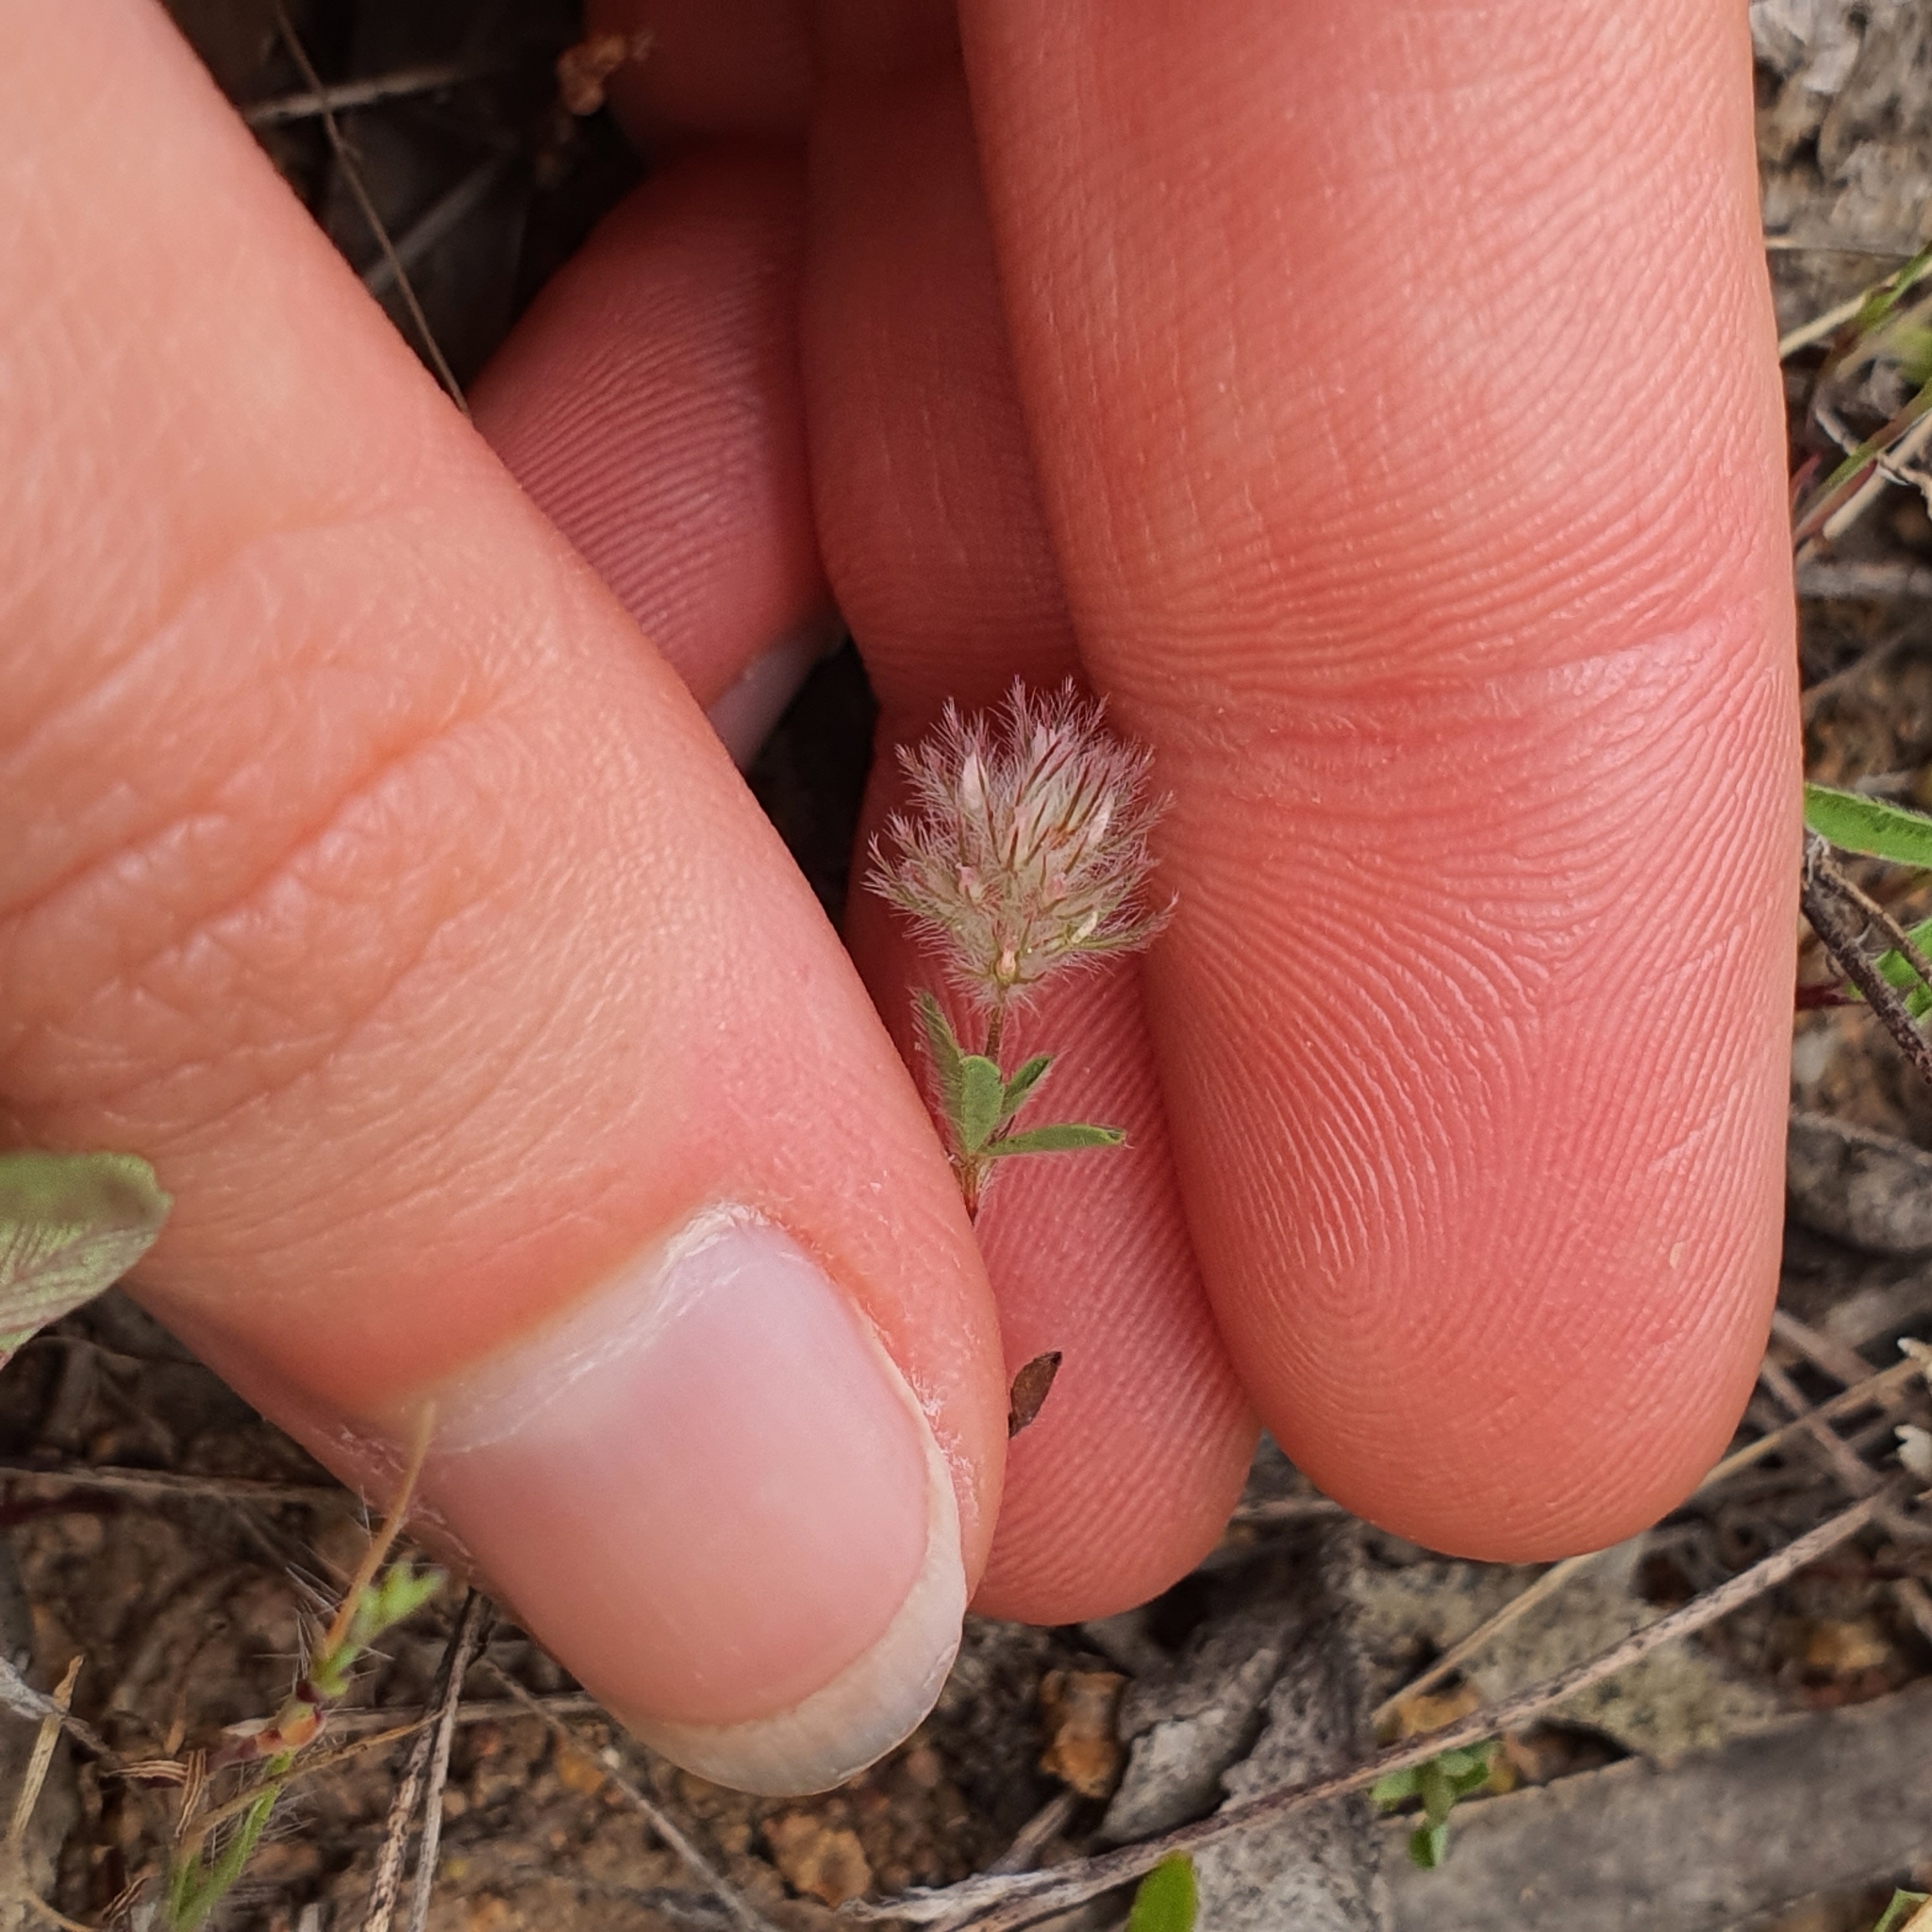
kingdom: Plantae
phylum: Tracheophyta
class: Magnoliopsida
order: Fabales
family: Fabaceae
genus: Trifolium
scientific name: Trifolium arvense
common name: Hare's-foot clover
